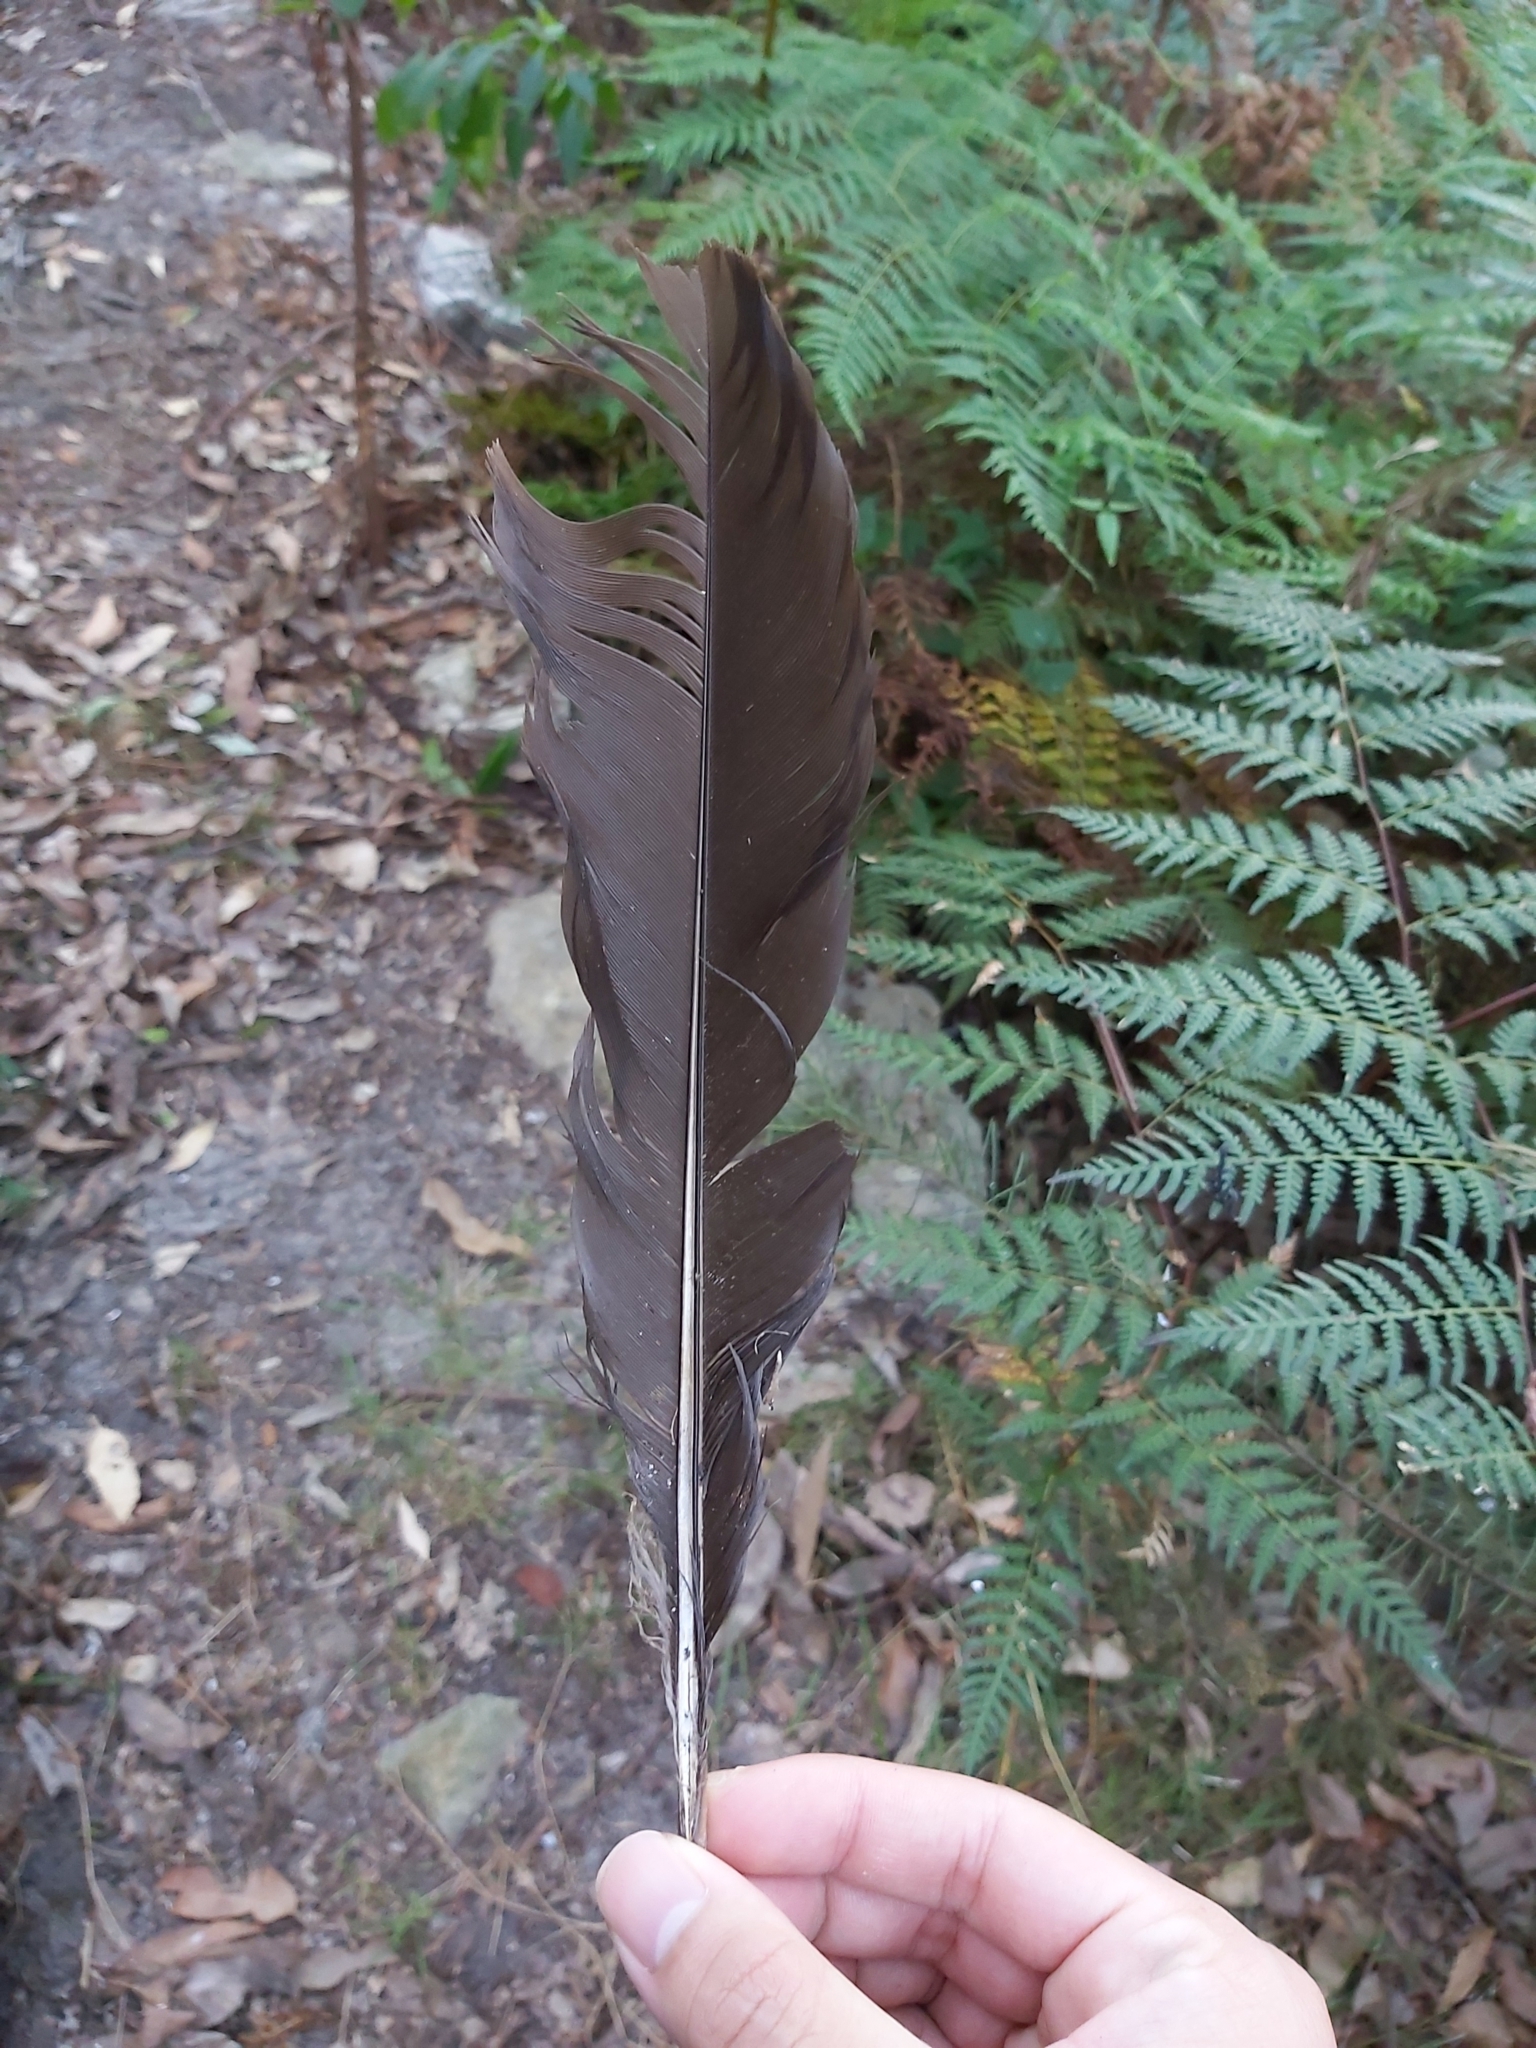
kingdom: Animalia
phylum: Chordata
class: Aves
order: Galliformes
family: Megapodiidae
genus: Alectura
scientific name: Alectura lathami
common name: Australian brushturkey
